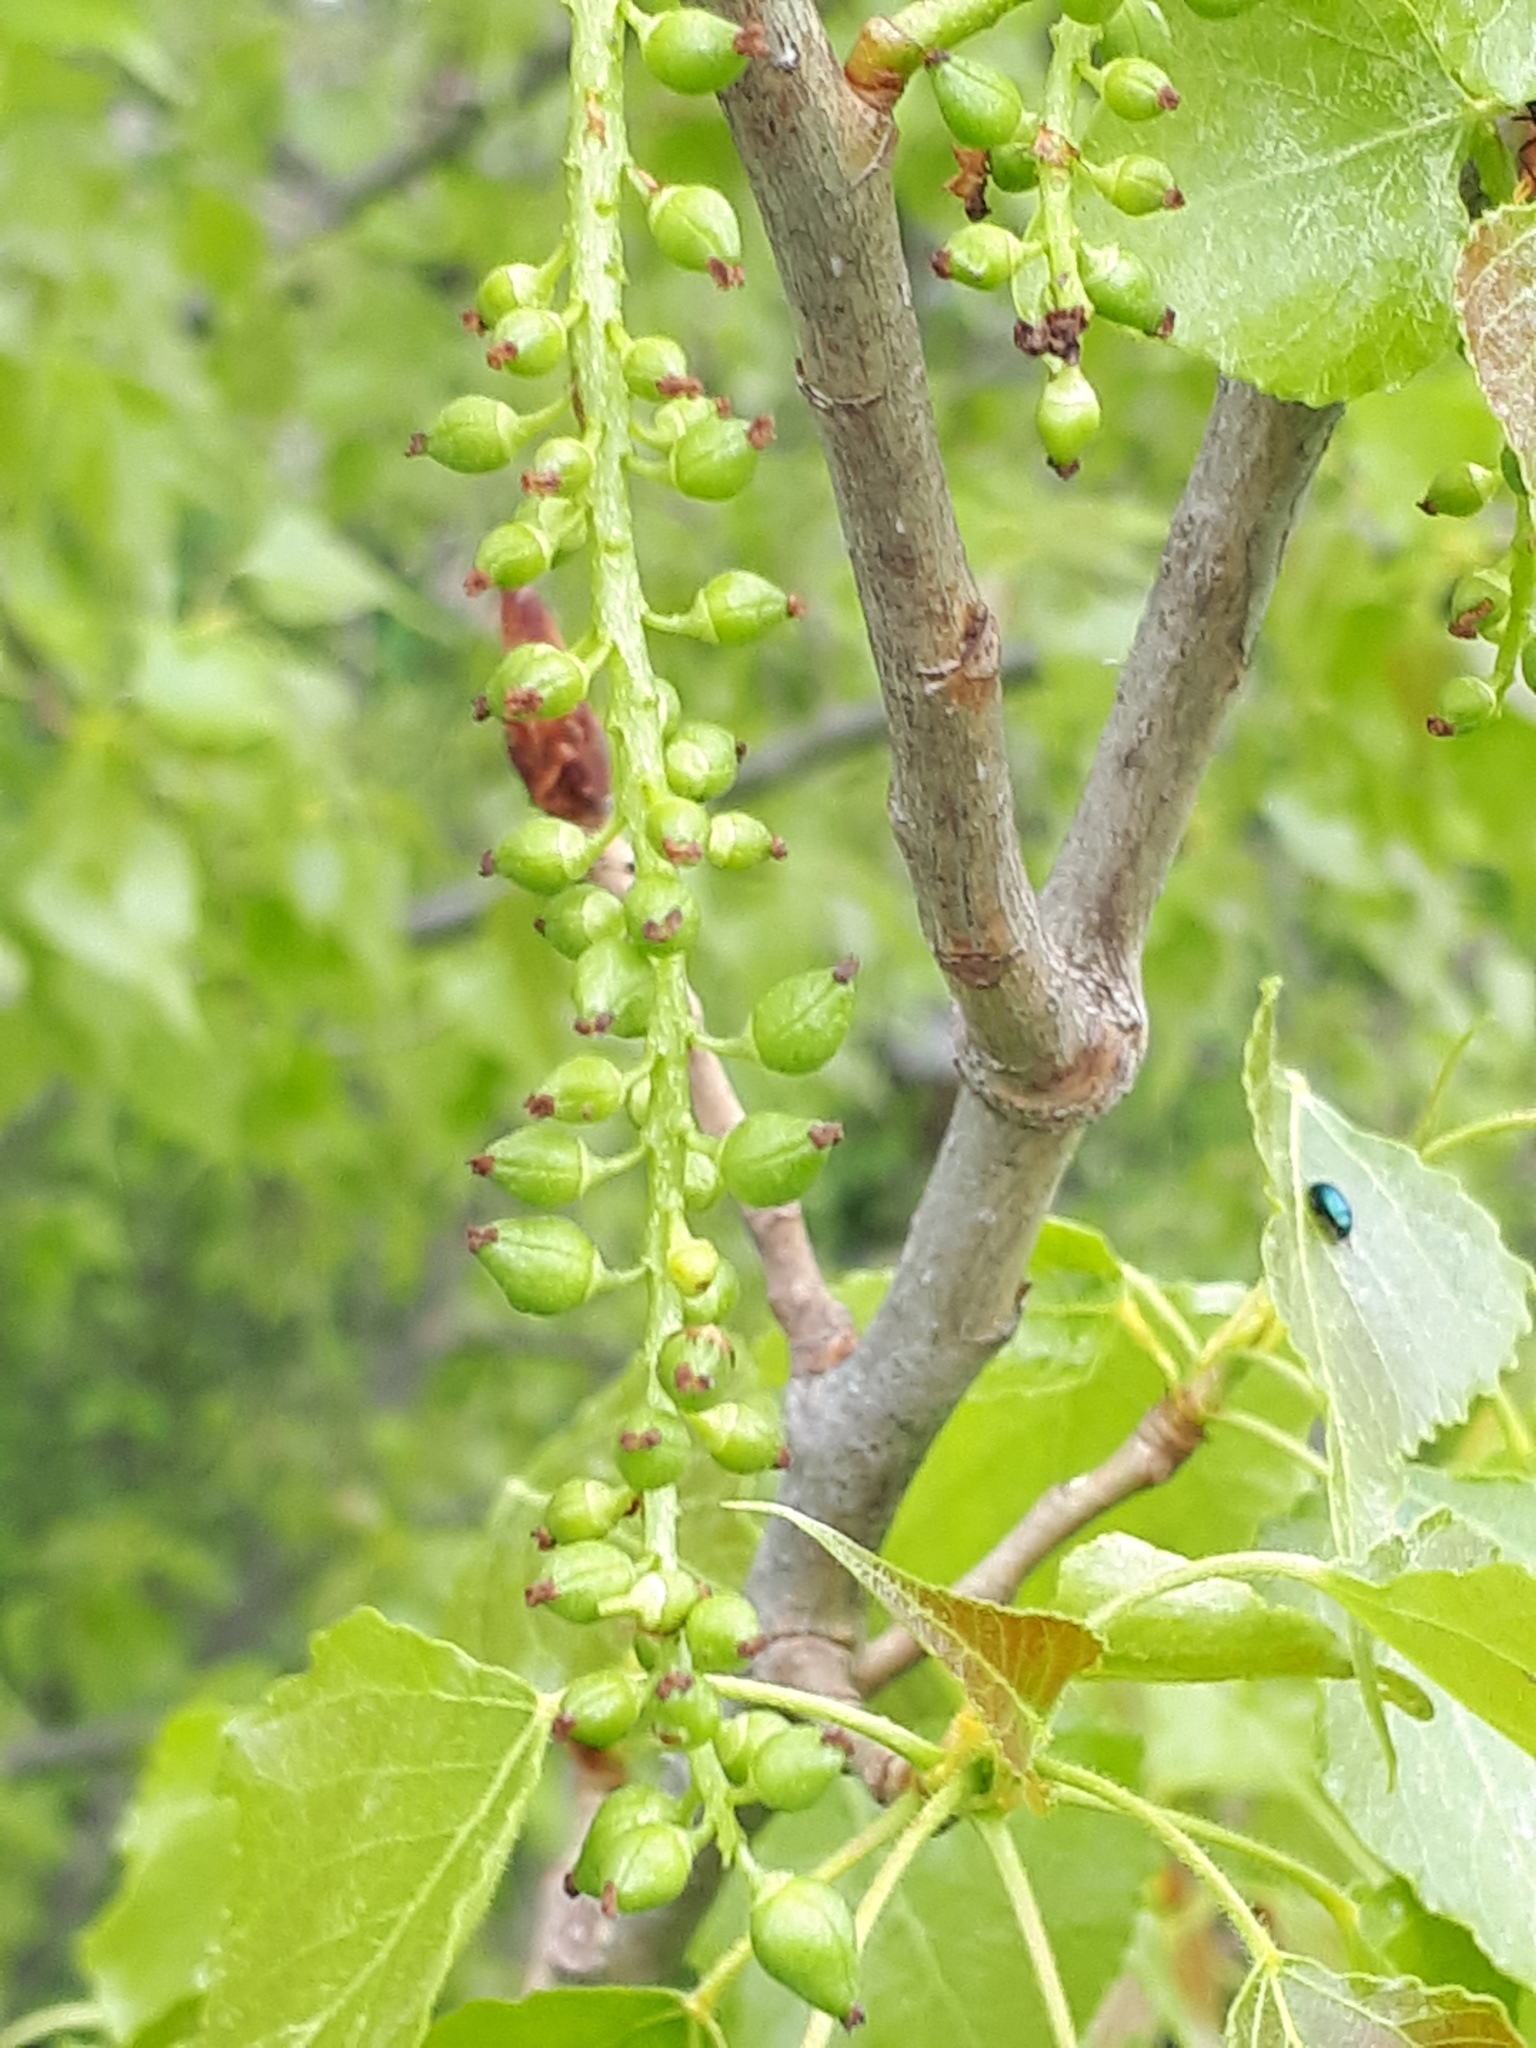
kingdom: Plantae
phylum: Tracheophyta
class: Magnoliopsida
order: Malpighiales
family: Salicaceae
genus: Populus
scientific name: Populus nigra
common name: Black poplar
